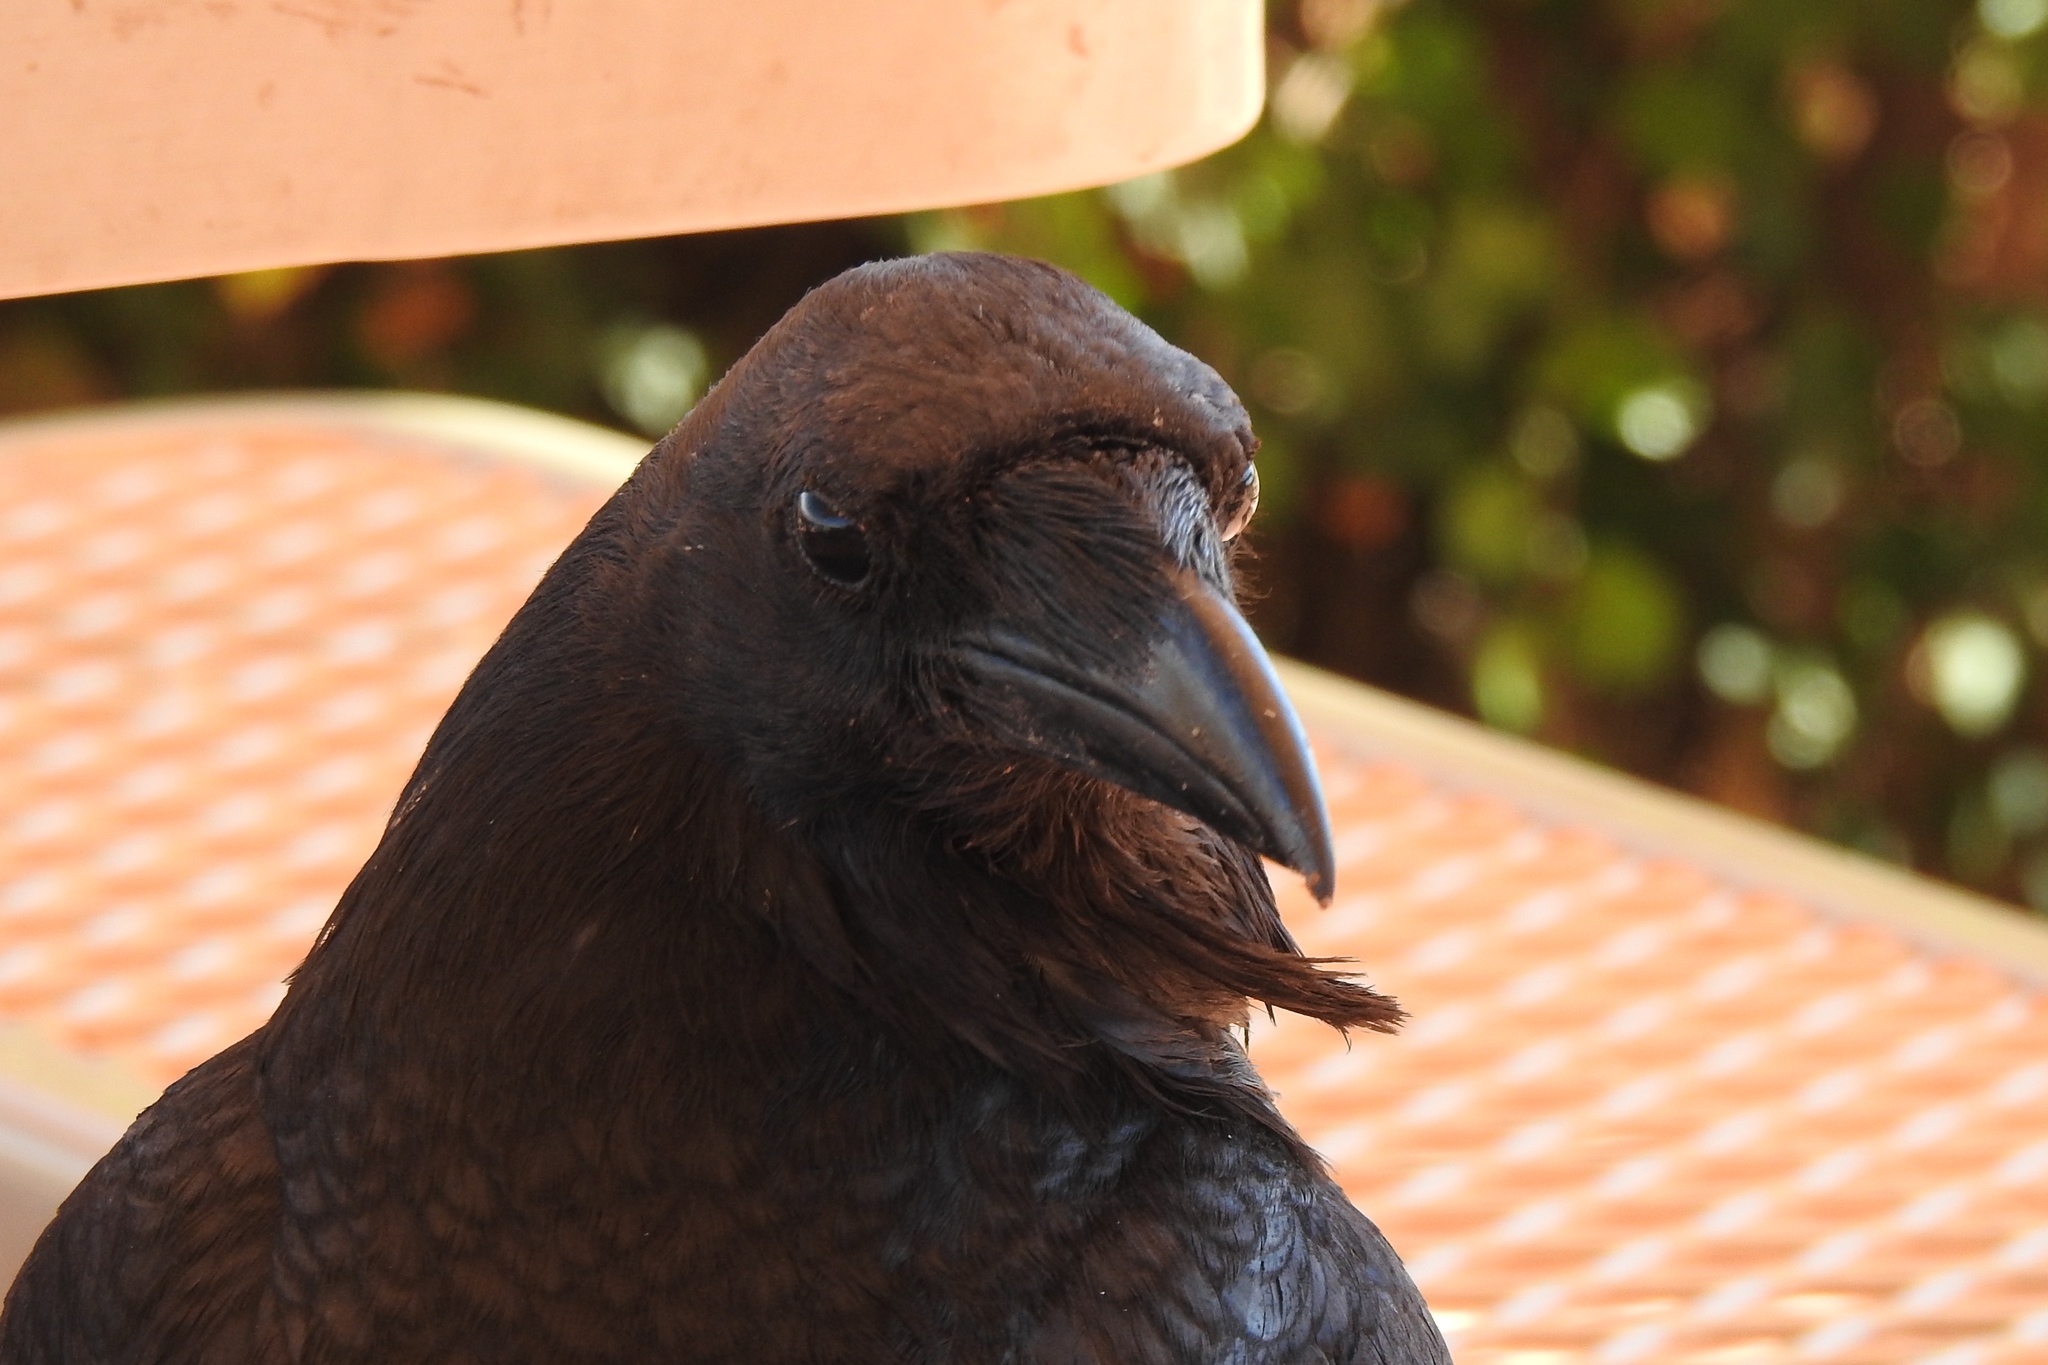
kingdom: Animalia
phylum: Chordata
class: Aves
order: Passeriformes
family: Corvidae
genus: Corvus
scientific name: Corvus corax
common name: Common raven
